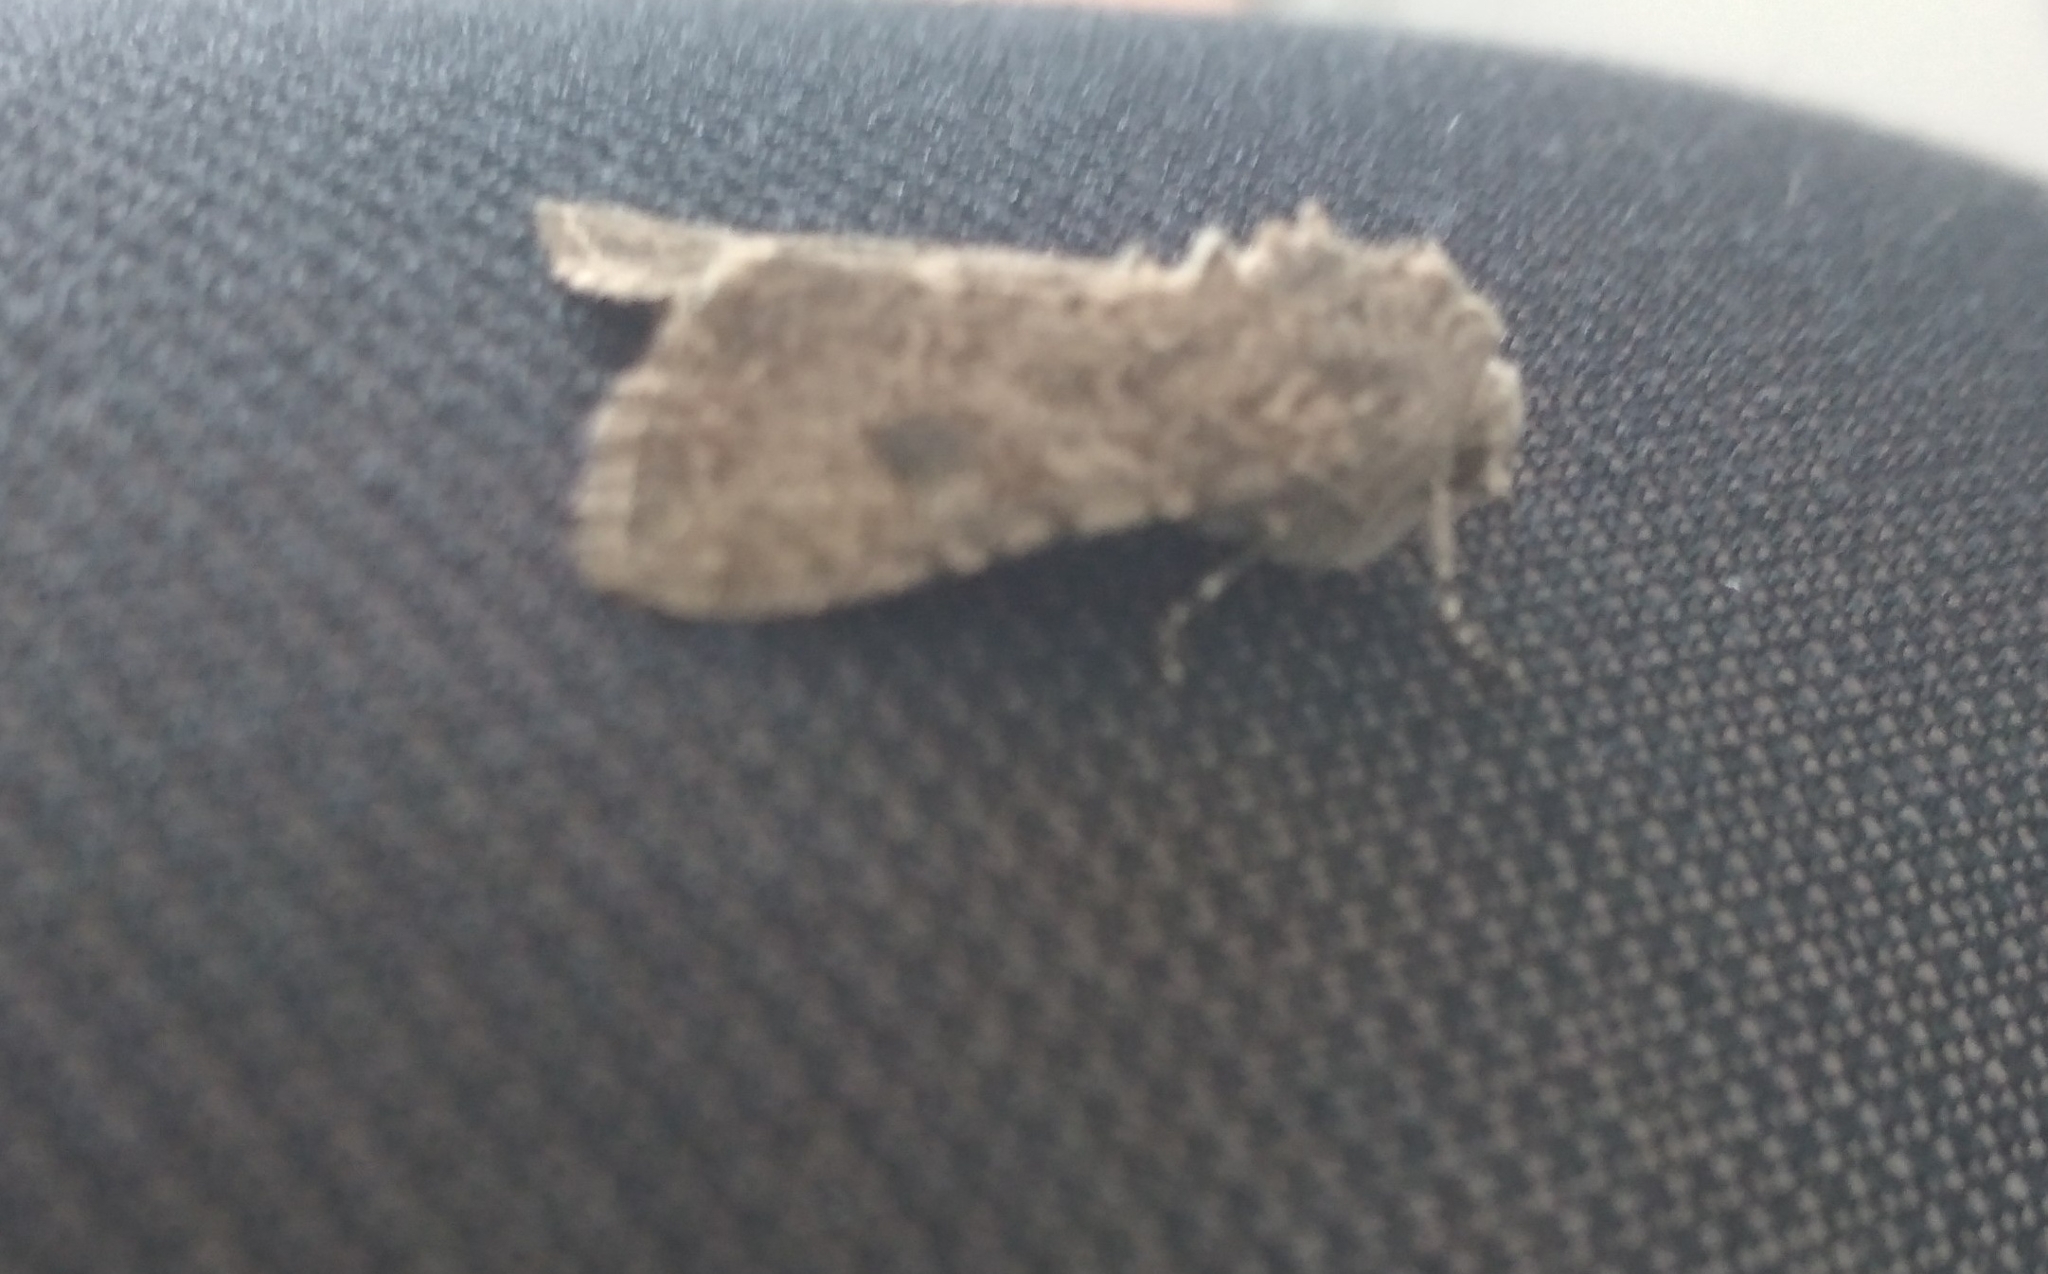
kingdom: Animalia
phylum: Arthropoda
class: Insecta
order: Lepidoptera
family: Noctuidae
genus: Anarta
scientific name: Anarta trifolii
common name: Clover cutworm moth
